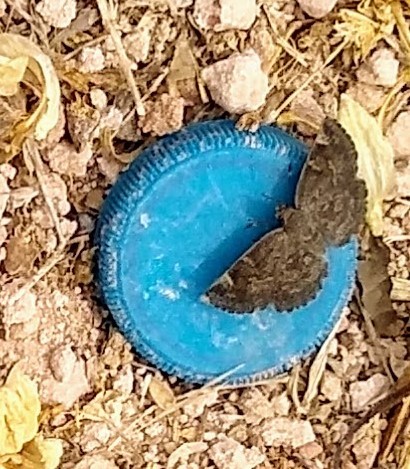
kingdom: Animalia
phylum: Arthropoda
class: Insecta
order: Lepidoptera
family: Hesperiidae
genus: Sarangesa
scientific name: Sarangesa purendra
